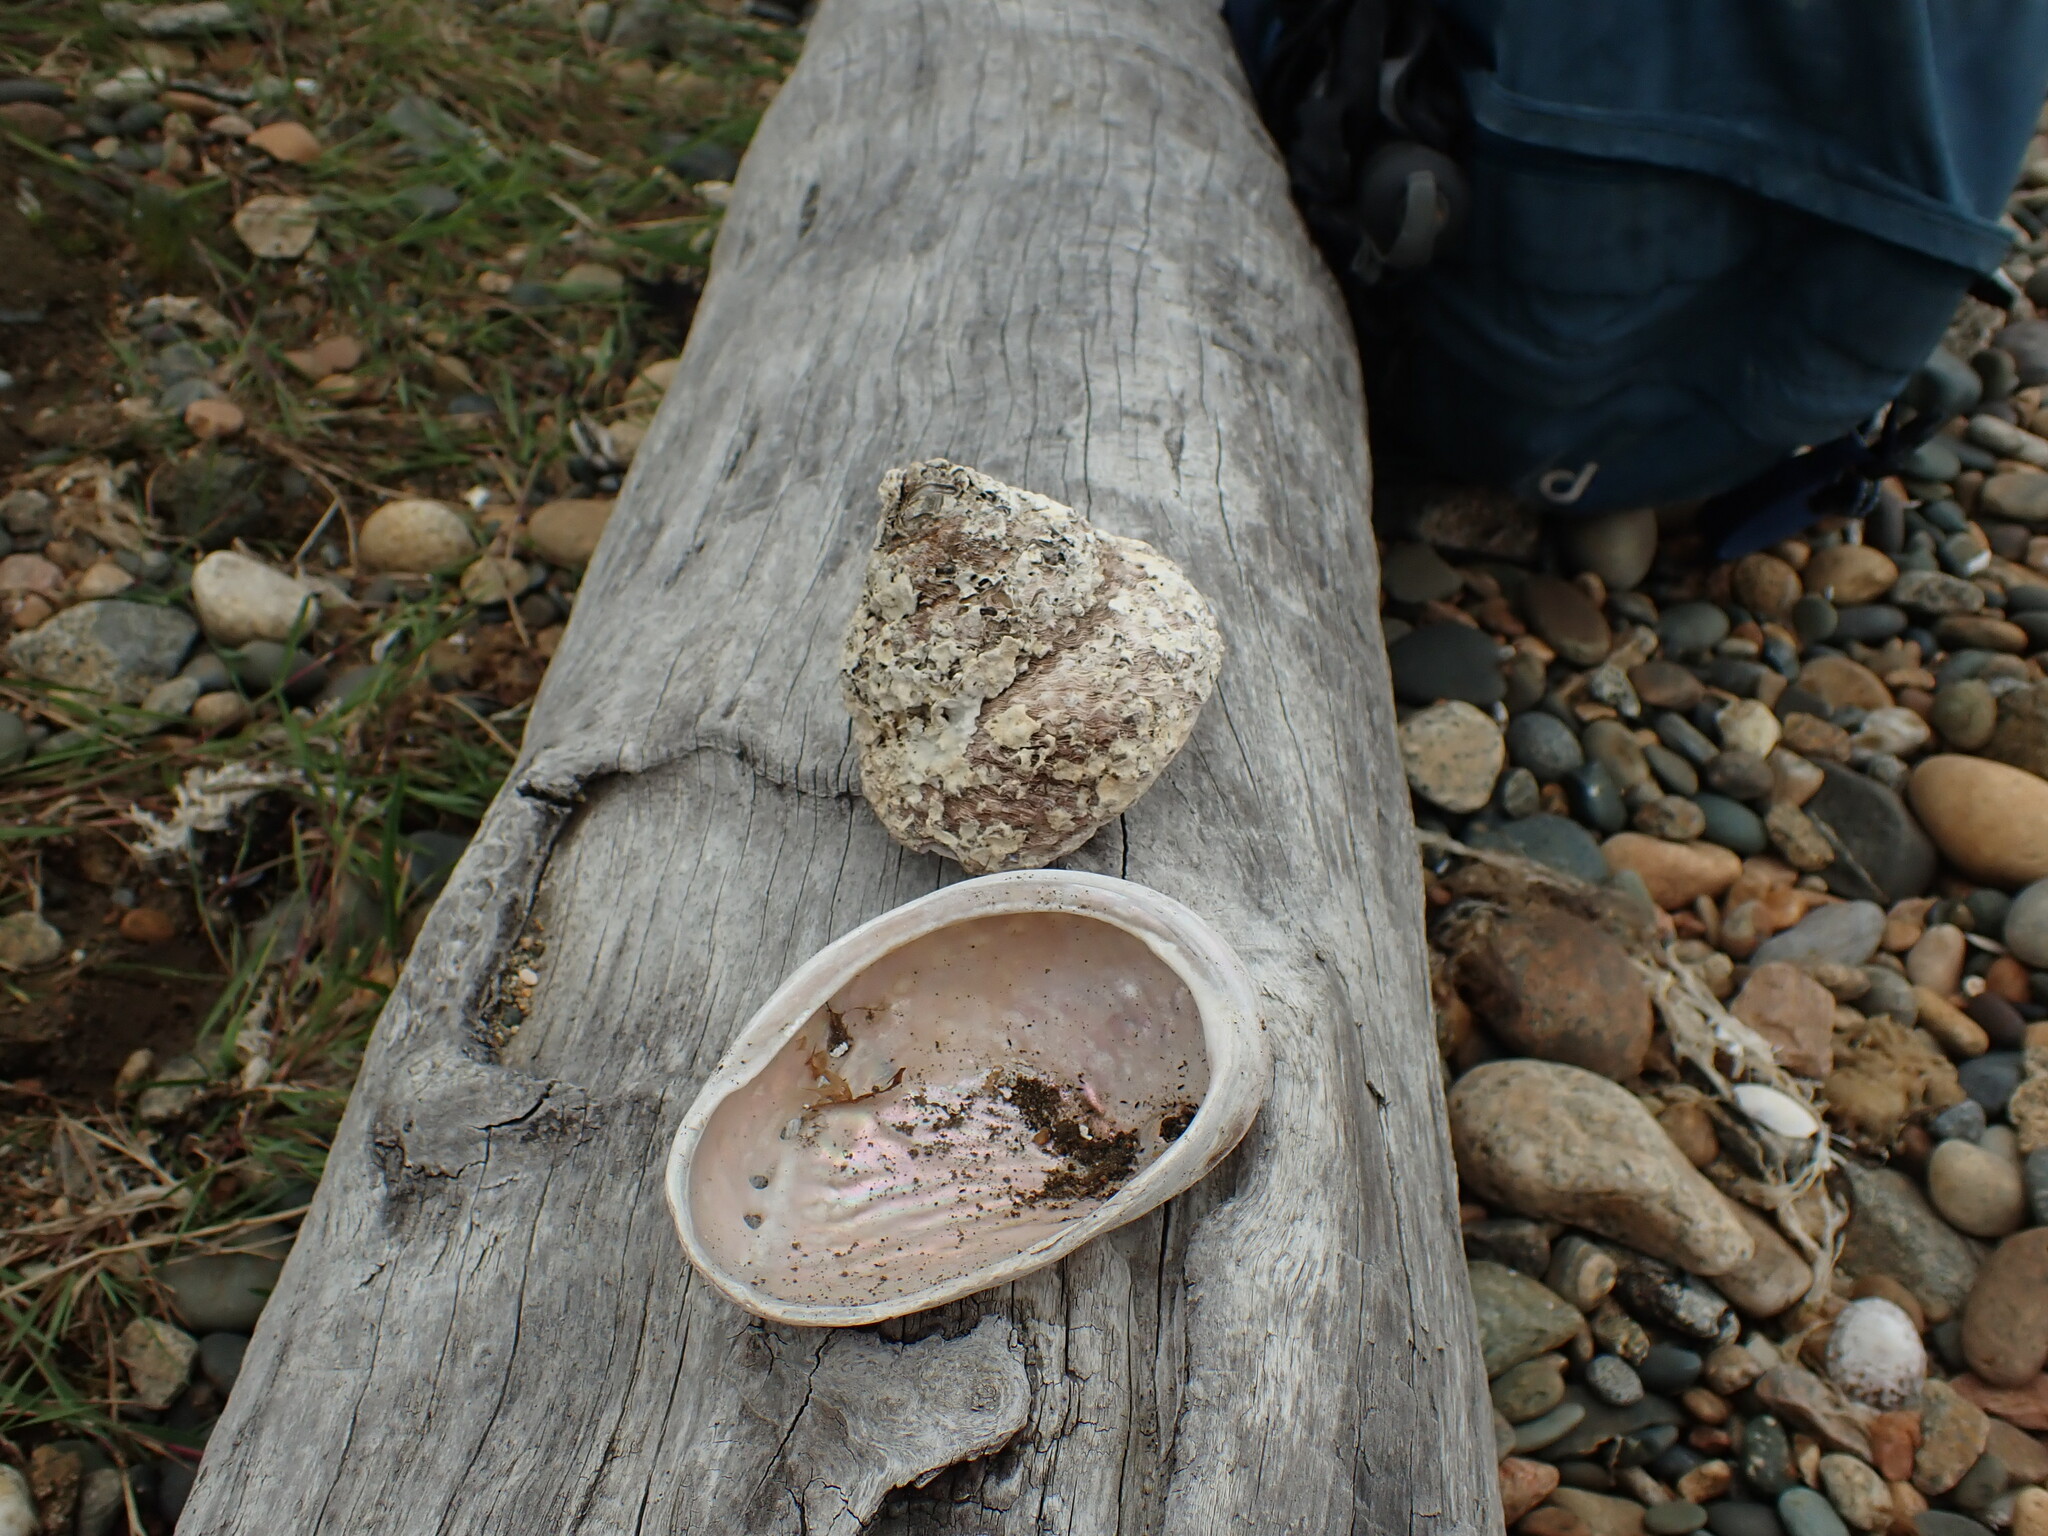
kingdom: Animalia
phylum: Mollusca
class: Gastropoda
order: Lepetellida
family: Haliotidae
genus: Haliotis
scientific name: Haliotis australis
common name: Silver abalone
